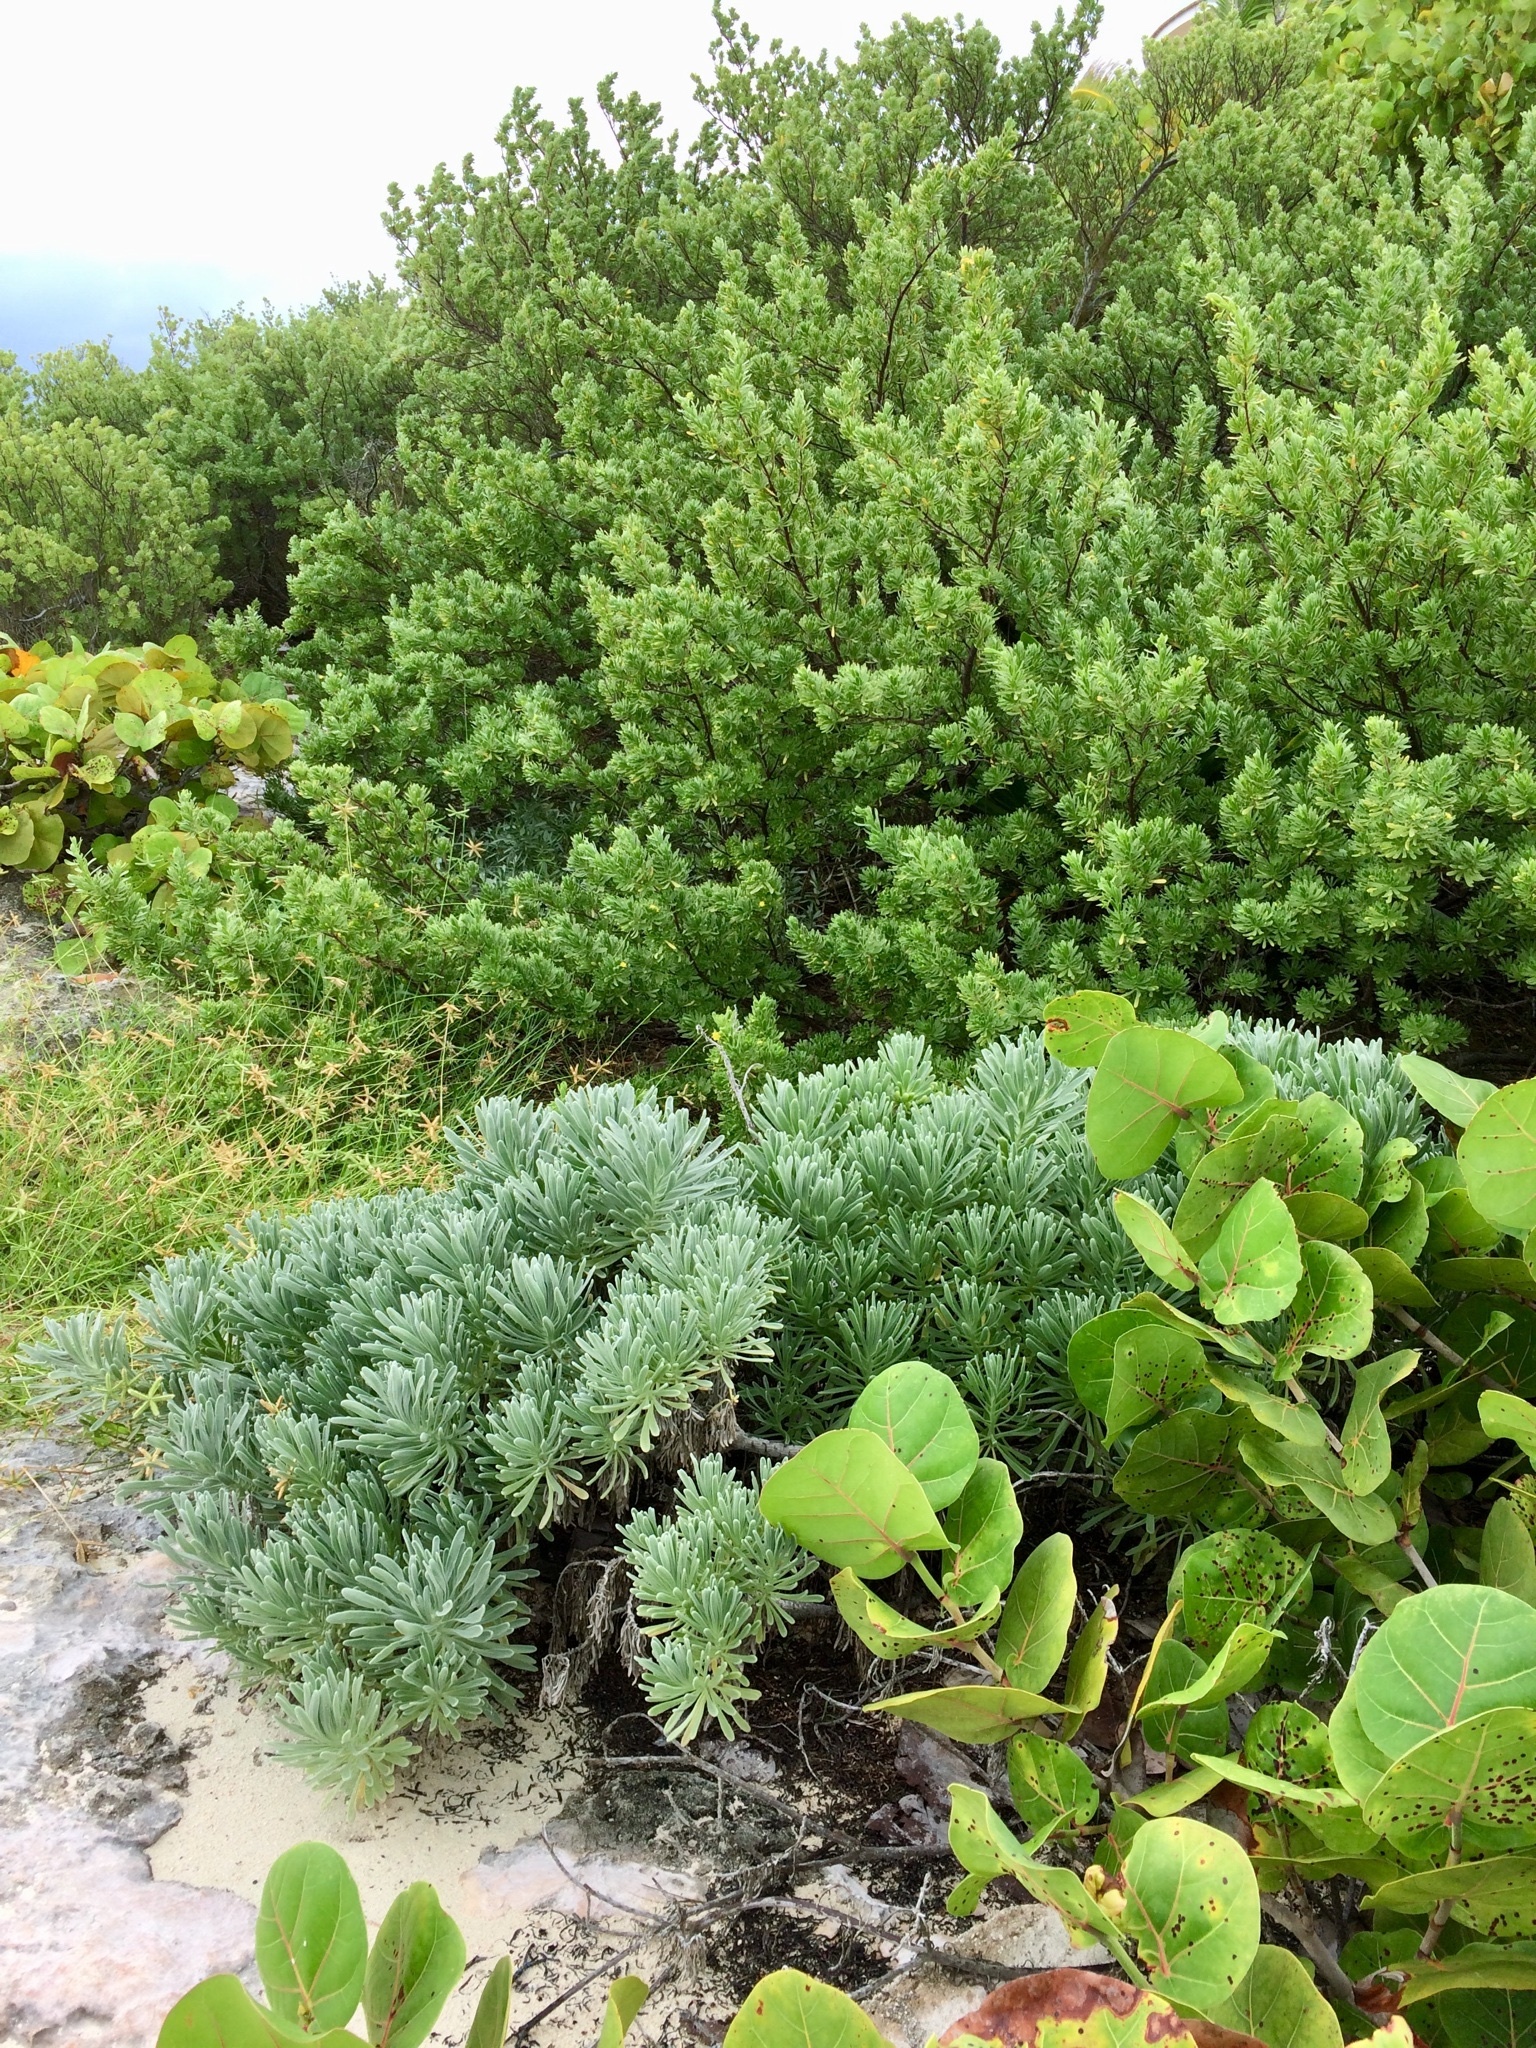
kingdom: Plantae
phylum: Tracheophyta
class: Magnoliopsida
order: Boraginales
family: Heliotropiaceae
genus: Tournefortia
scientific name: Tournefortia gnaphalodes
